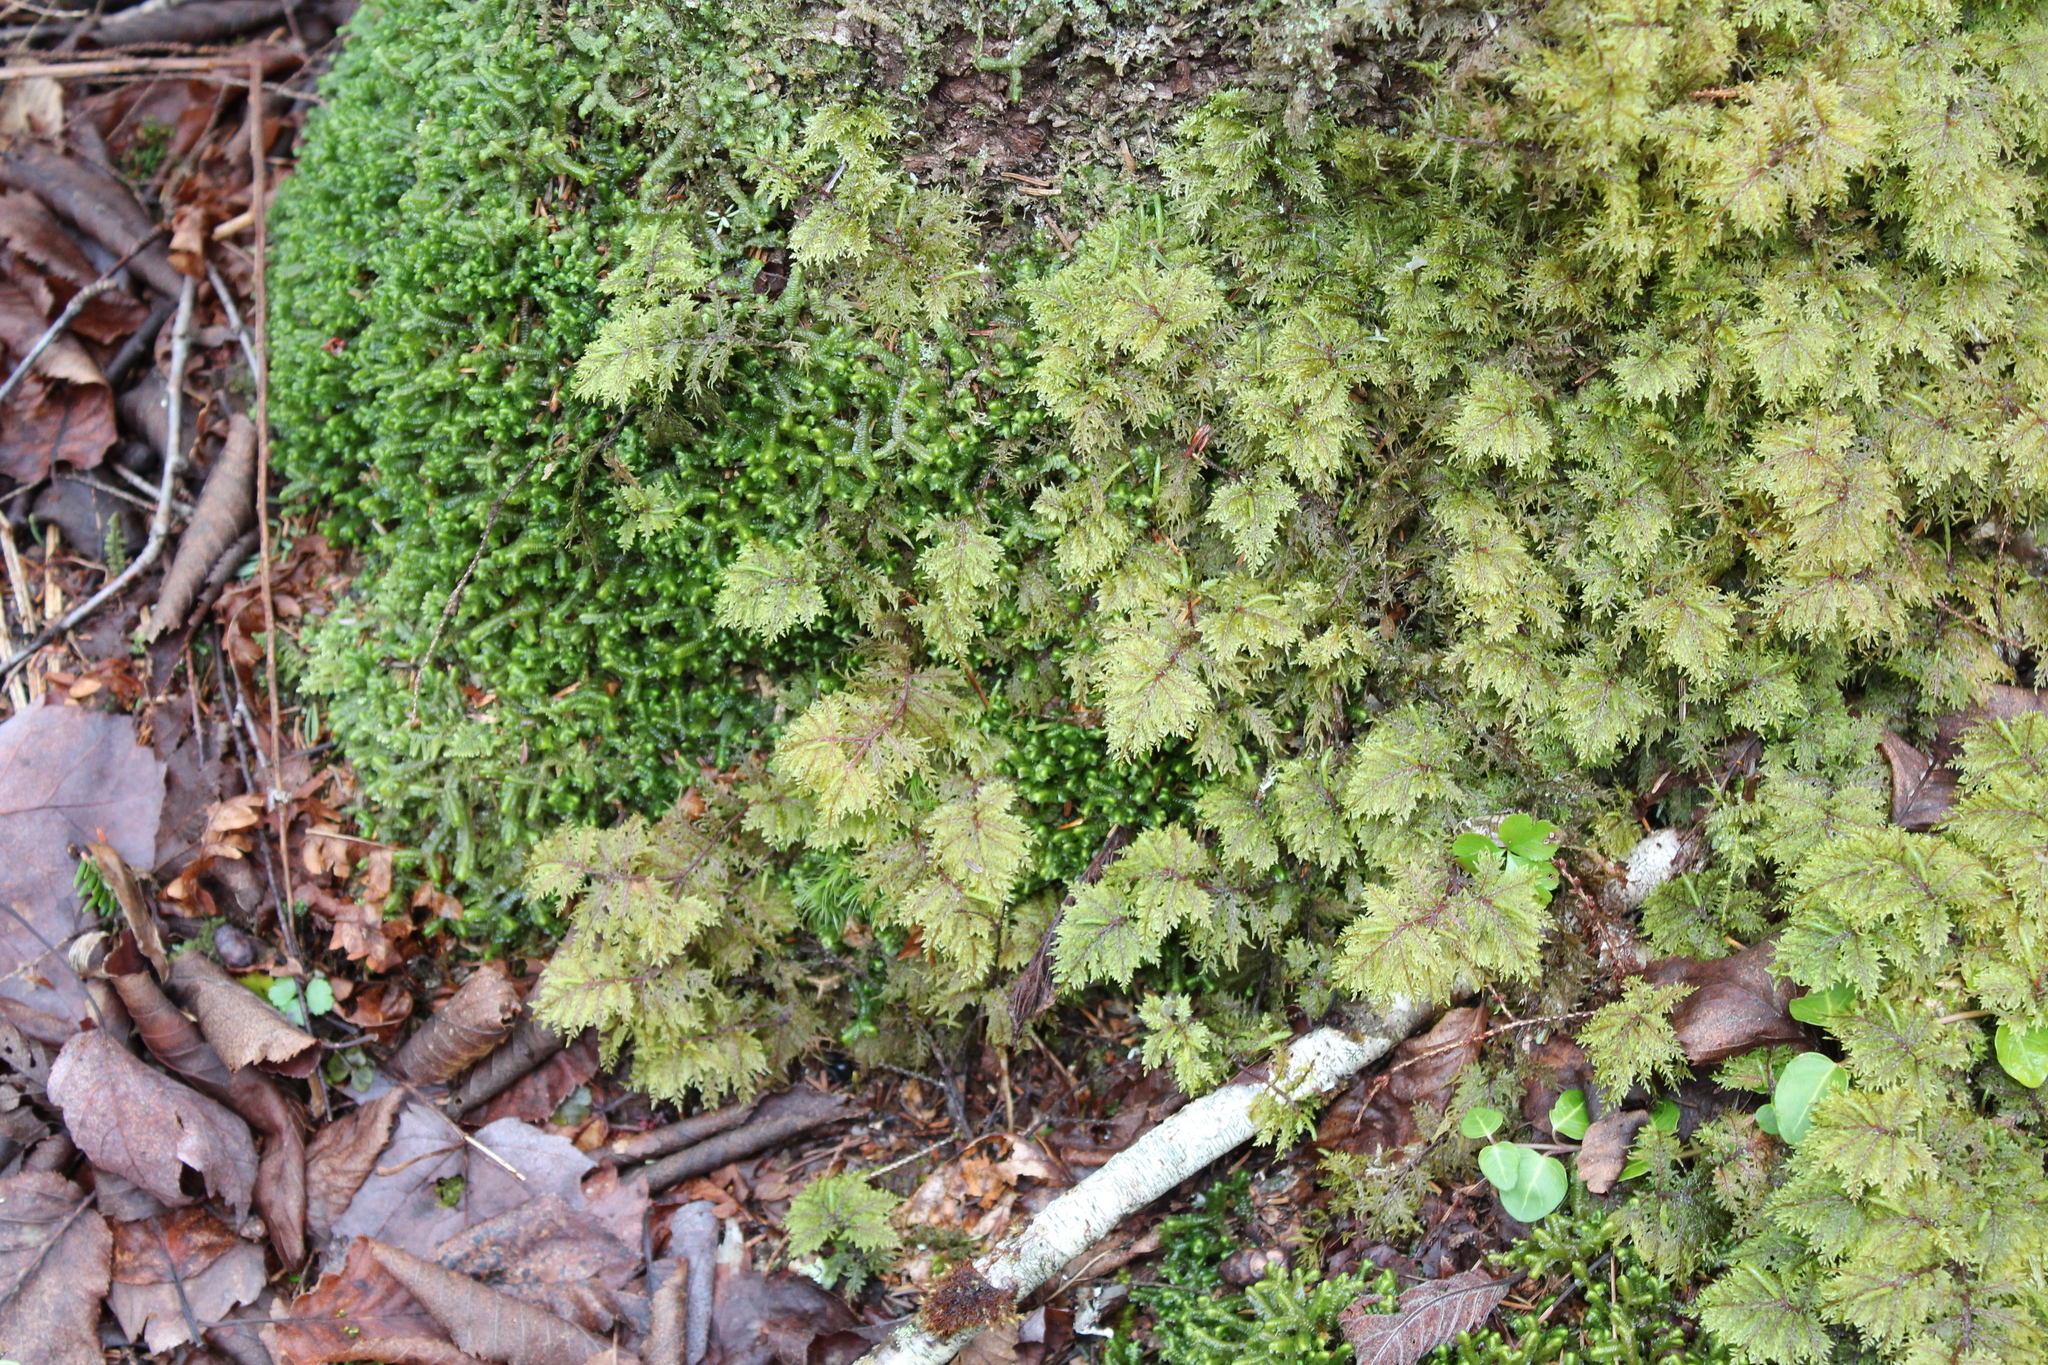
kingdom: Plantae
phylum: Bryophyta
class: Bryopsida
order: Hypnales
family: Hylocomiaceae
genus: Hylocomium
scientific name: Hylocomium splendens
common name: Stairstep moss
